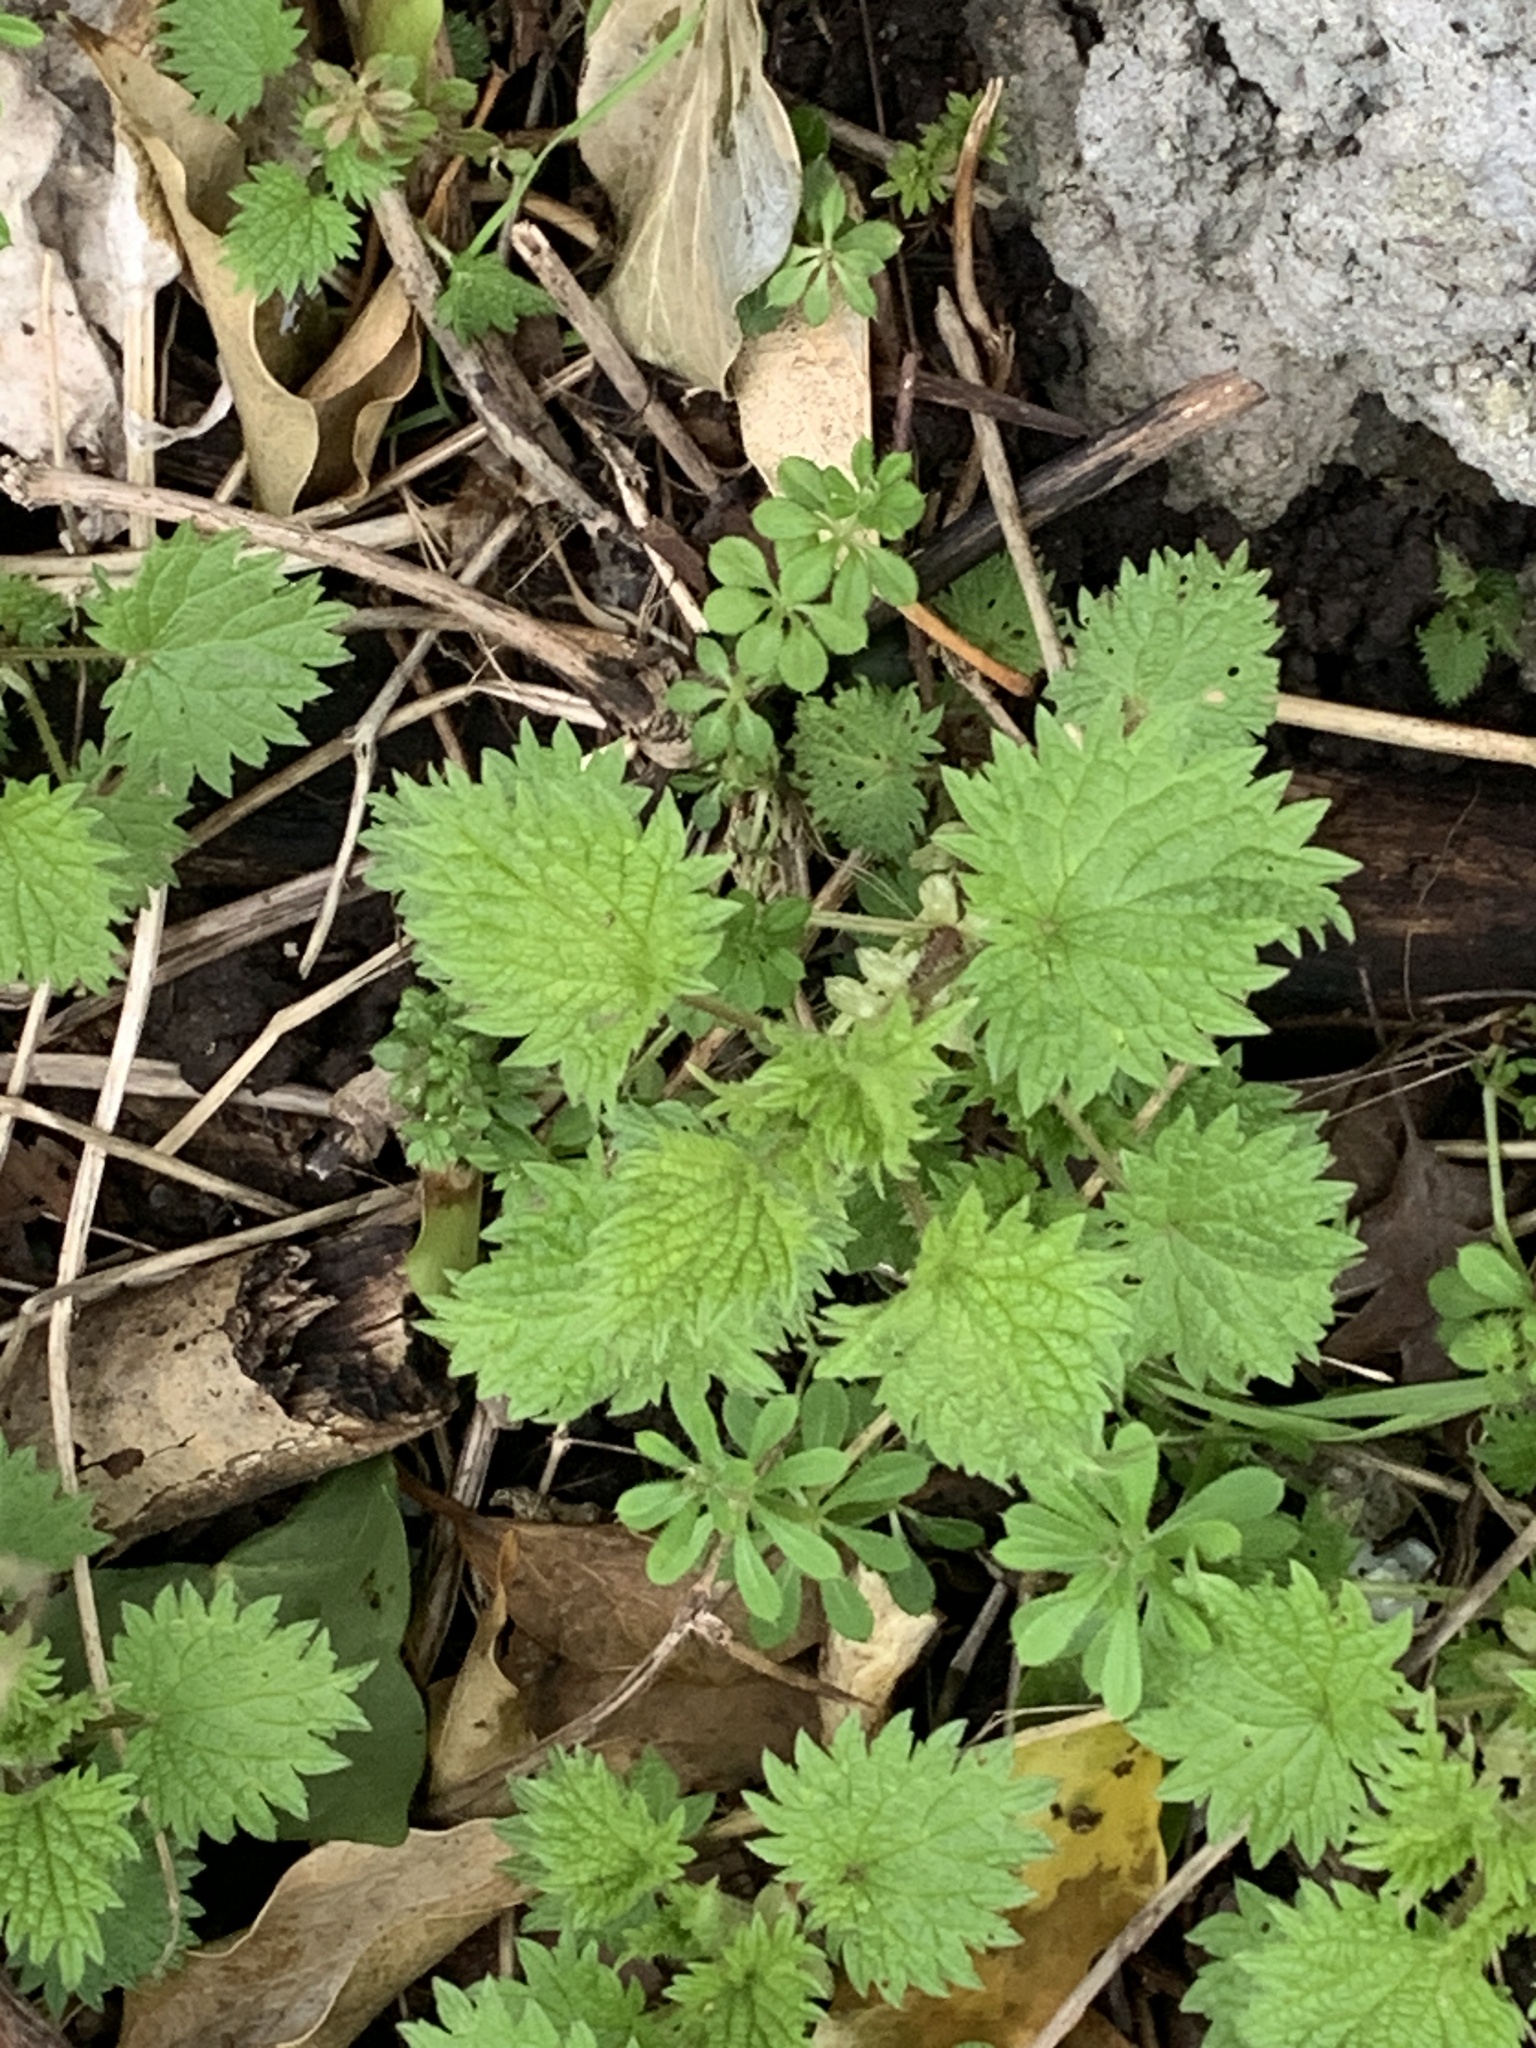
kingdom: Plantae
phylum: Tracheophyta
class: Magnoliopsida
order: Rosales
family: Urticaceae
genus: Urtica
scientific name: Urtica dioica
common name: Common nettle
